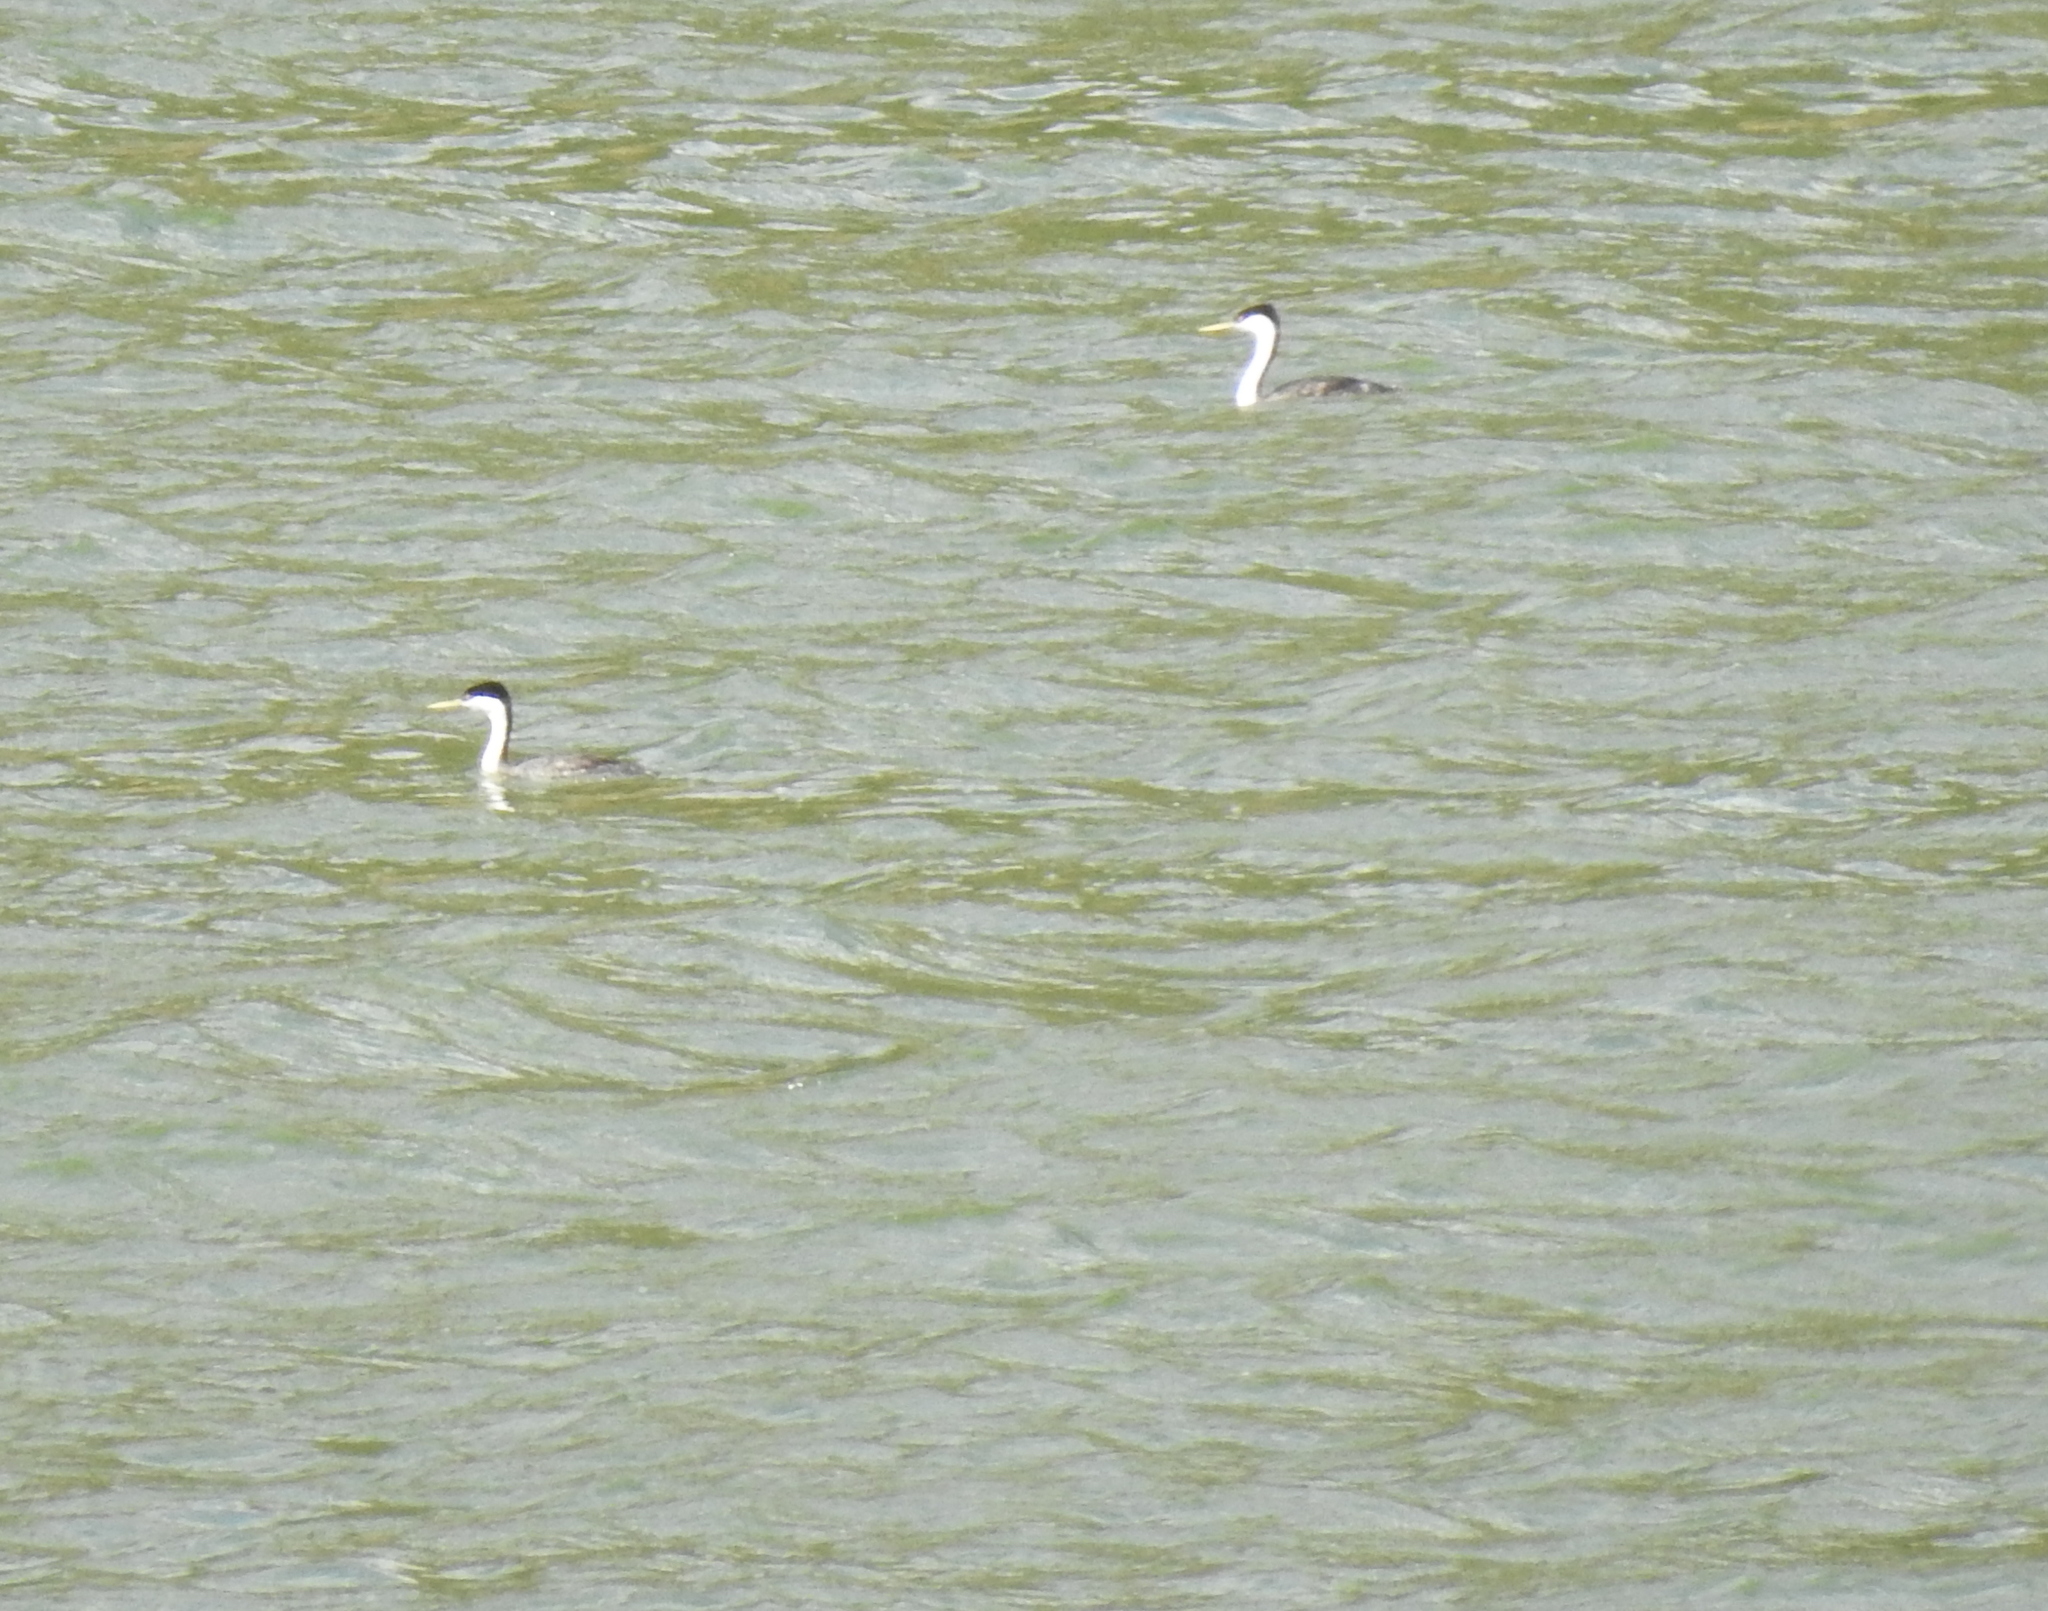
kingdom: Animalia
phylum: Chordata
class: Aves
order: Podicipediformes
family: Podicipedidae
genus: Aechmophorus
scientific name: Aechmophorus occidentalis
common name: Western grebe
